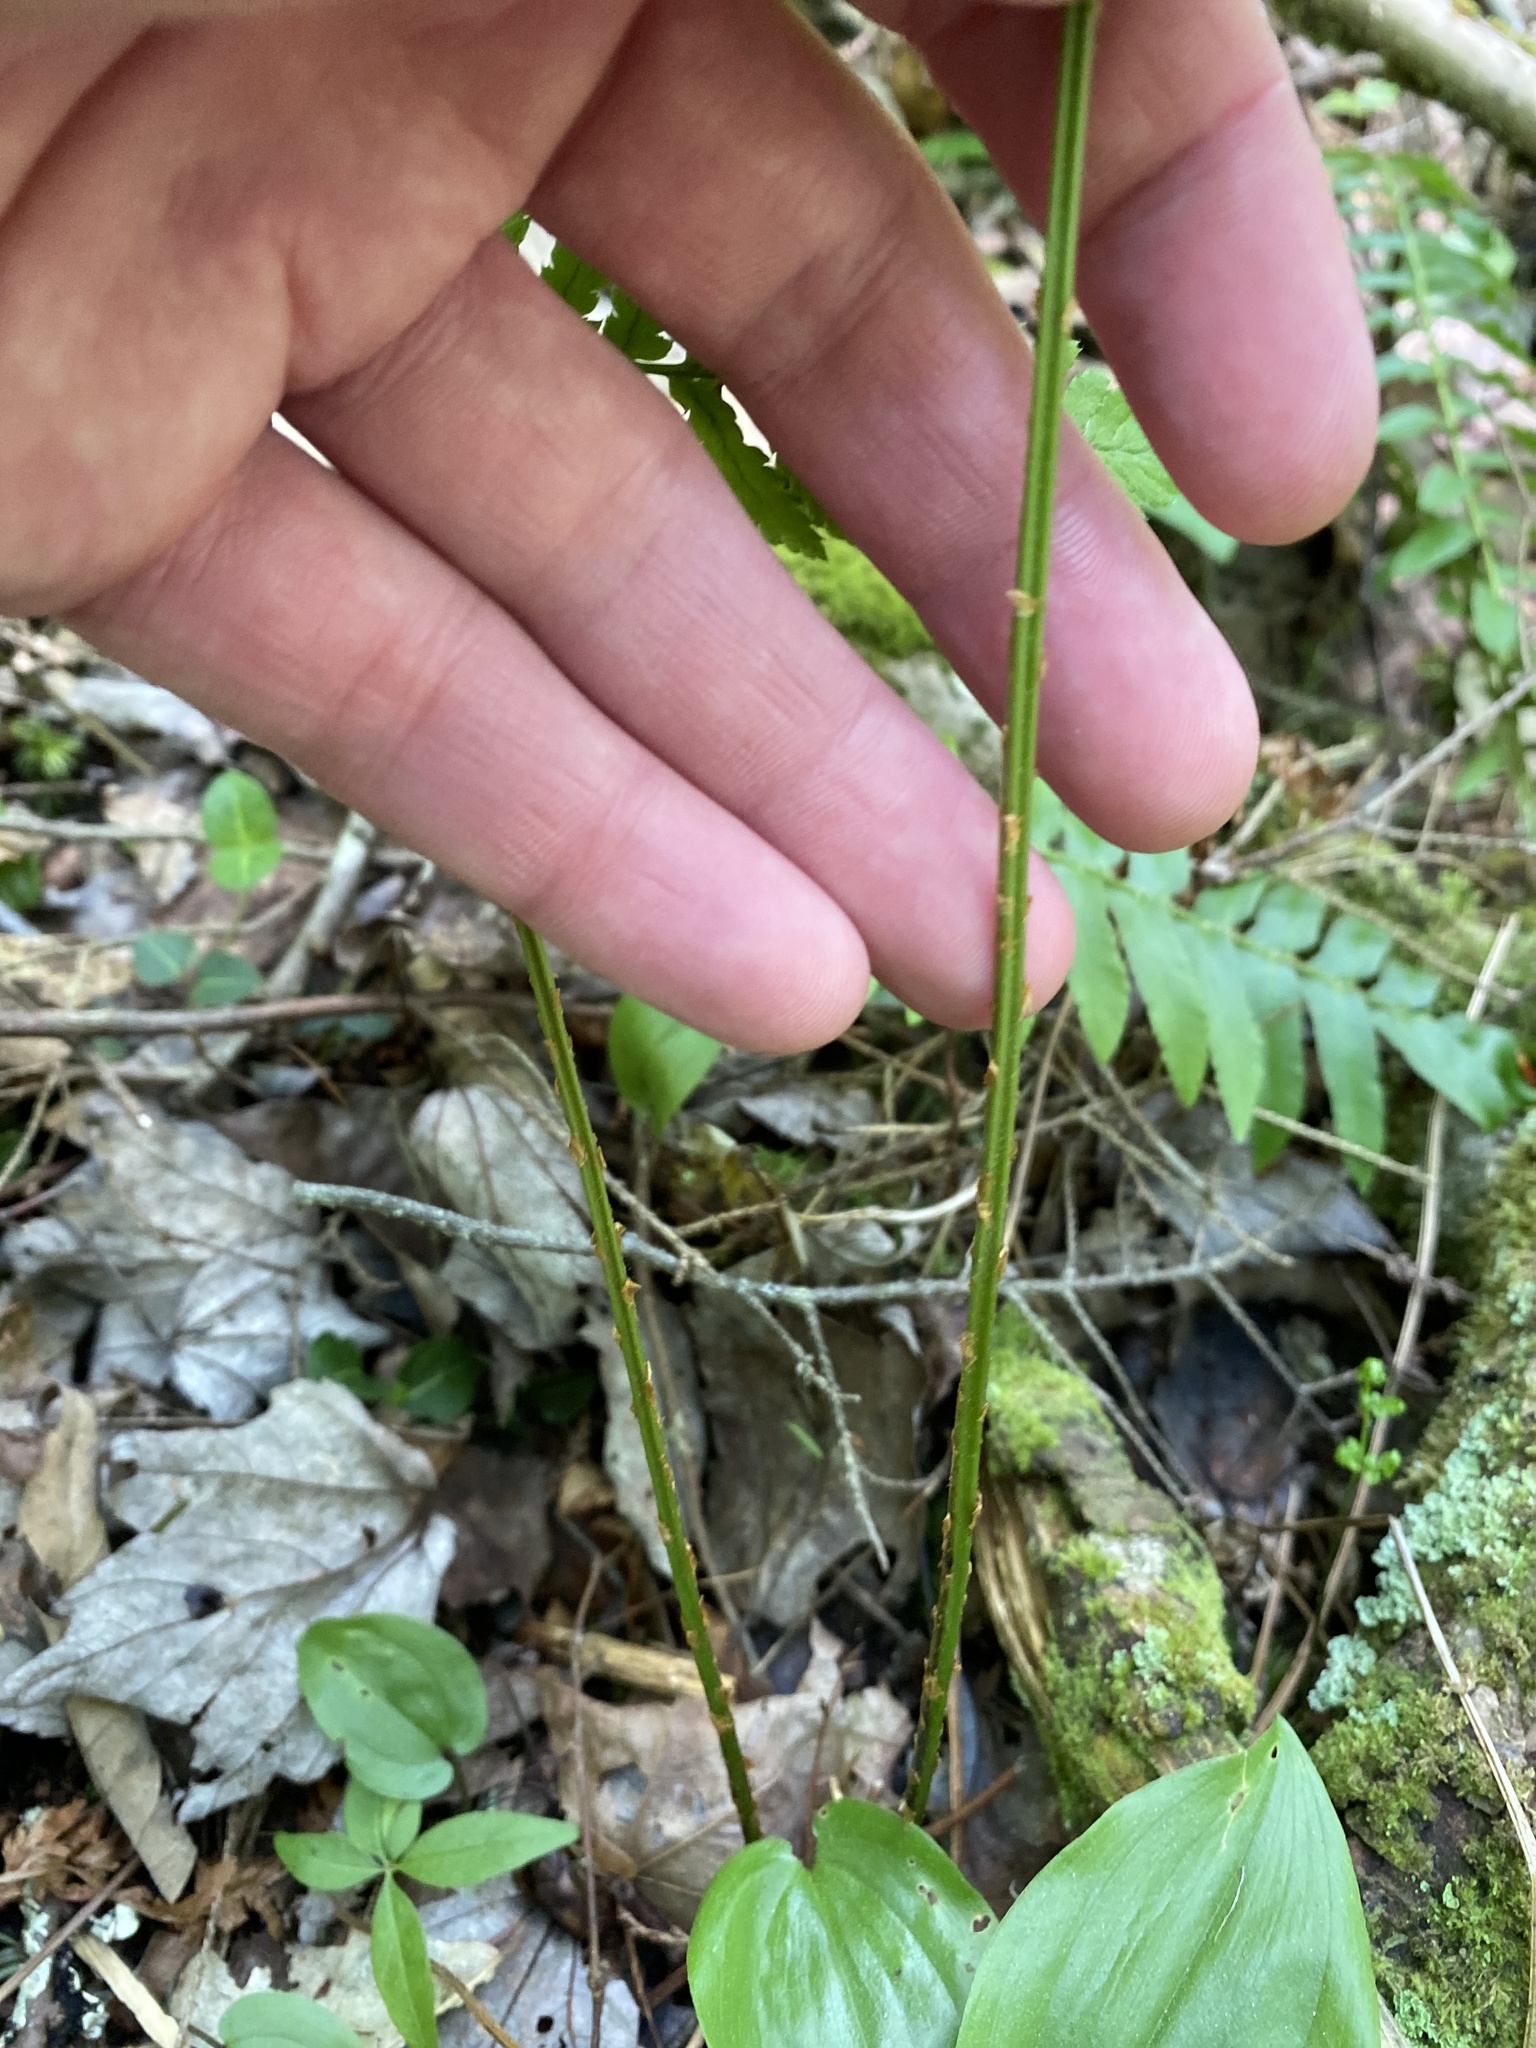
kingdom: Plantae
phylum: Tracheophyta
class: Polypodiopsida
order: Polypodiales
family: Dryopteridaceae
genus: Dryopteris
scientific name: Dryopteris carthusiana
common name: Narrow buckler-fern
